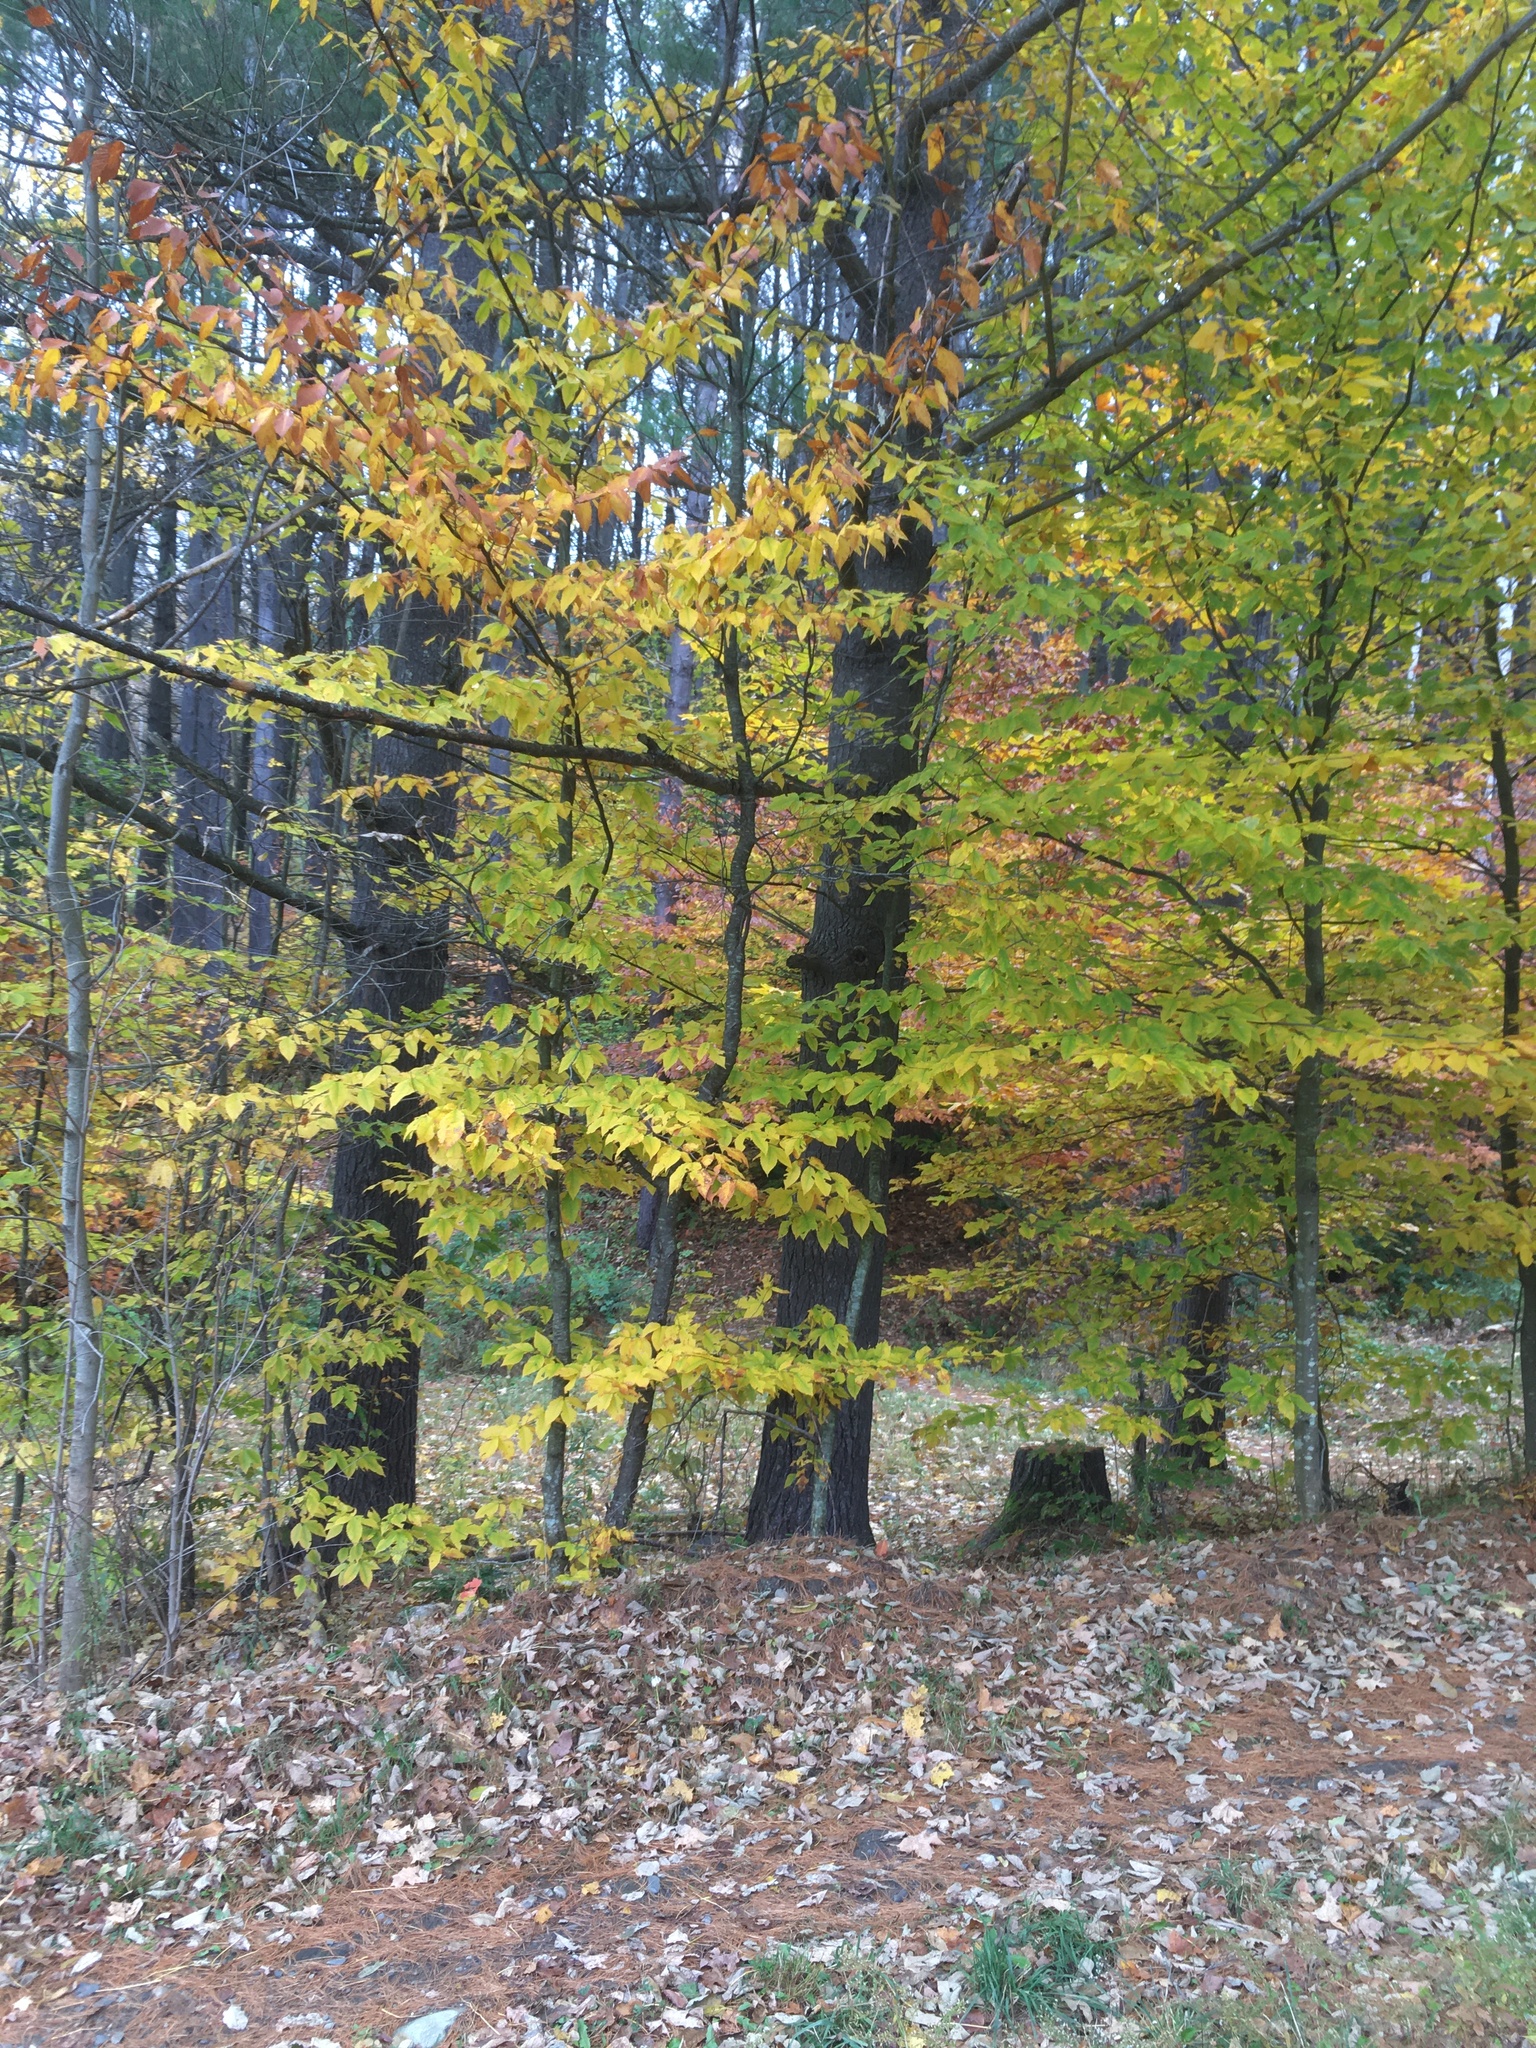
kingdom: Plantae
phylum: Tracheophyta
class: Magnoliopsida
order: Fagales
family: Fagaceae
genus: Fagus
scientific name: Fagus grandifolia
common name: American beech
